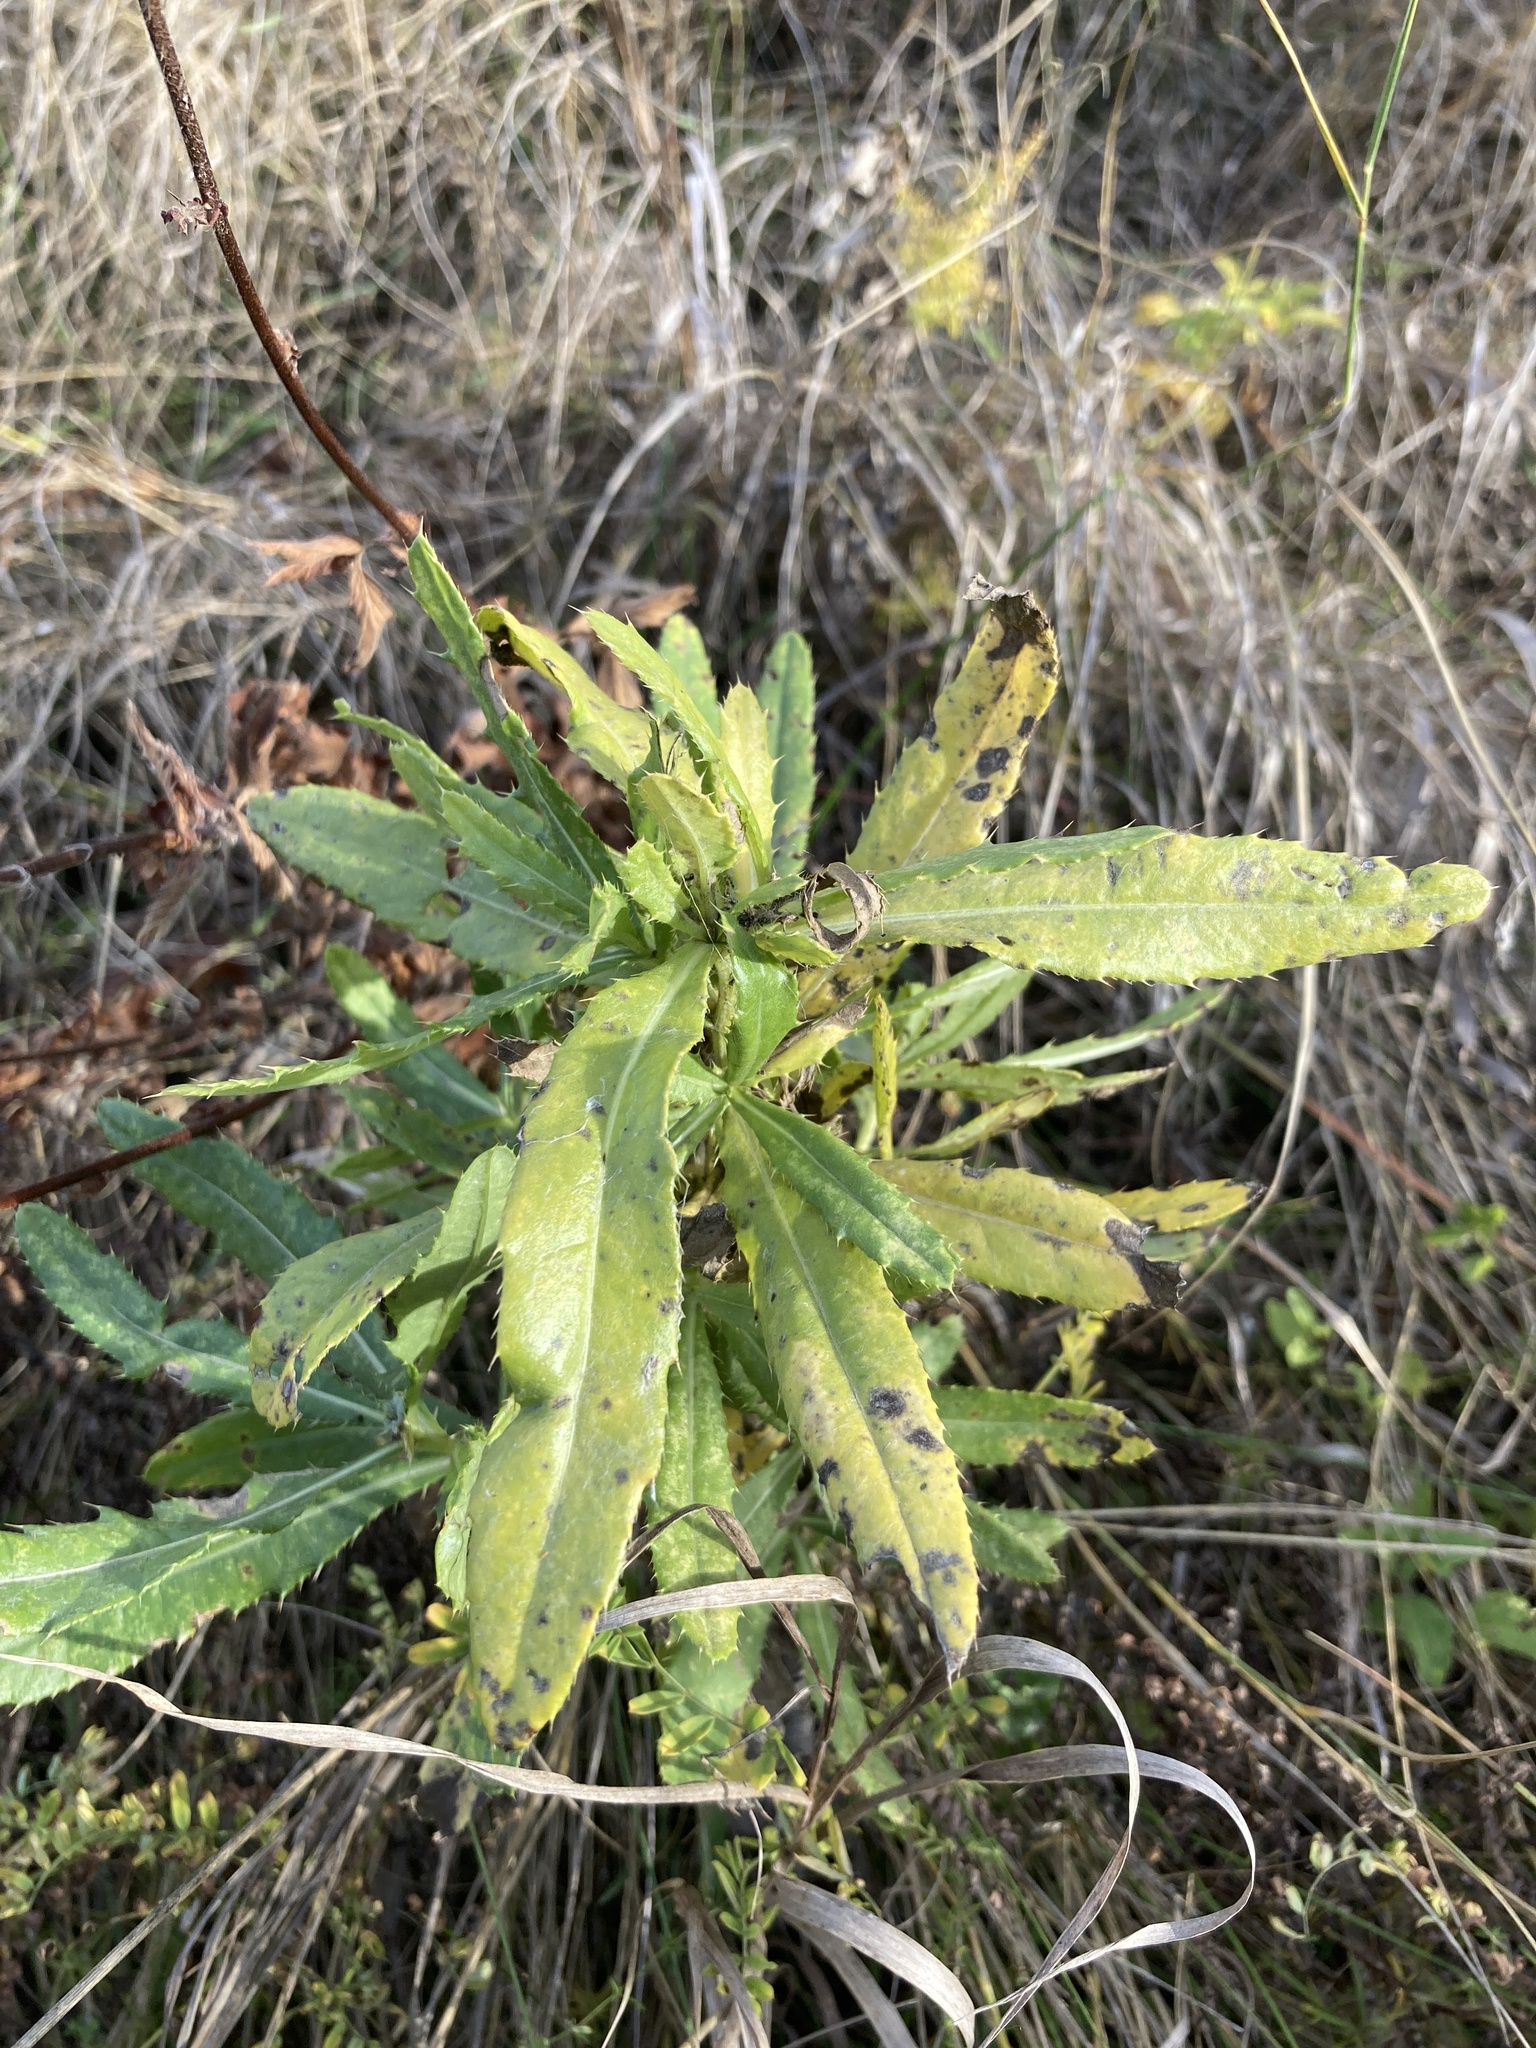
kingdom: Plantae
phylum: Tracheophyta
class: Magnoliopsida
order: Asterales
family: Asteraceae
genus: Cirsium
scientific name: Cirsium arvense
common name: Creeping thistle
